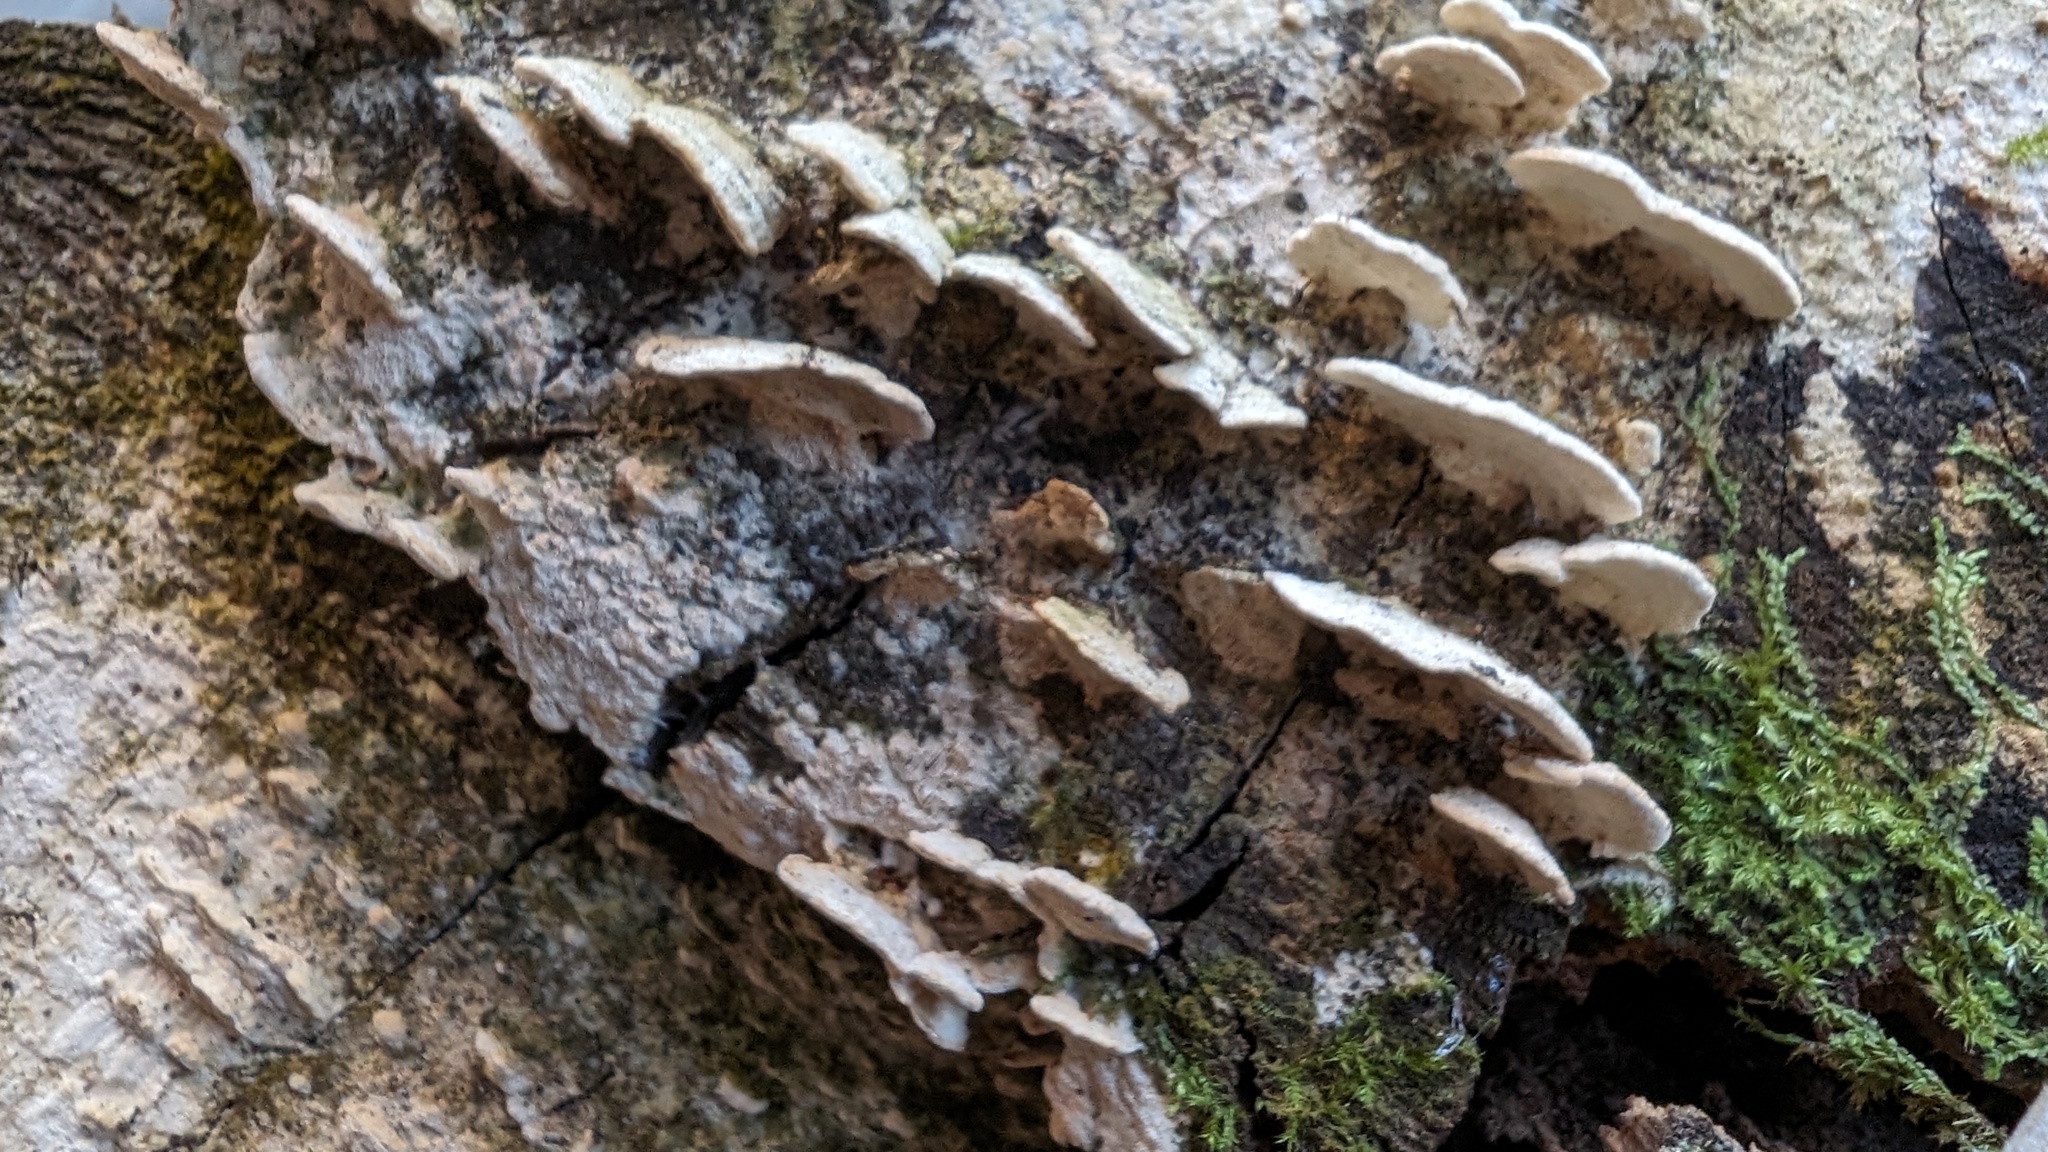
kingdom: Fungi
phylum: Basidiomycota
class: Agaricomycetes
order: Hymenochaetales
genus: Cyanotrama
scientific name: Cyanotrama
